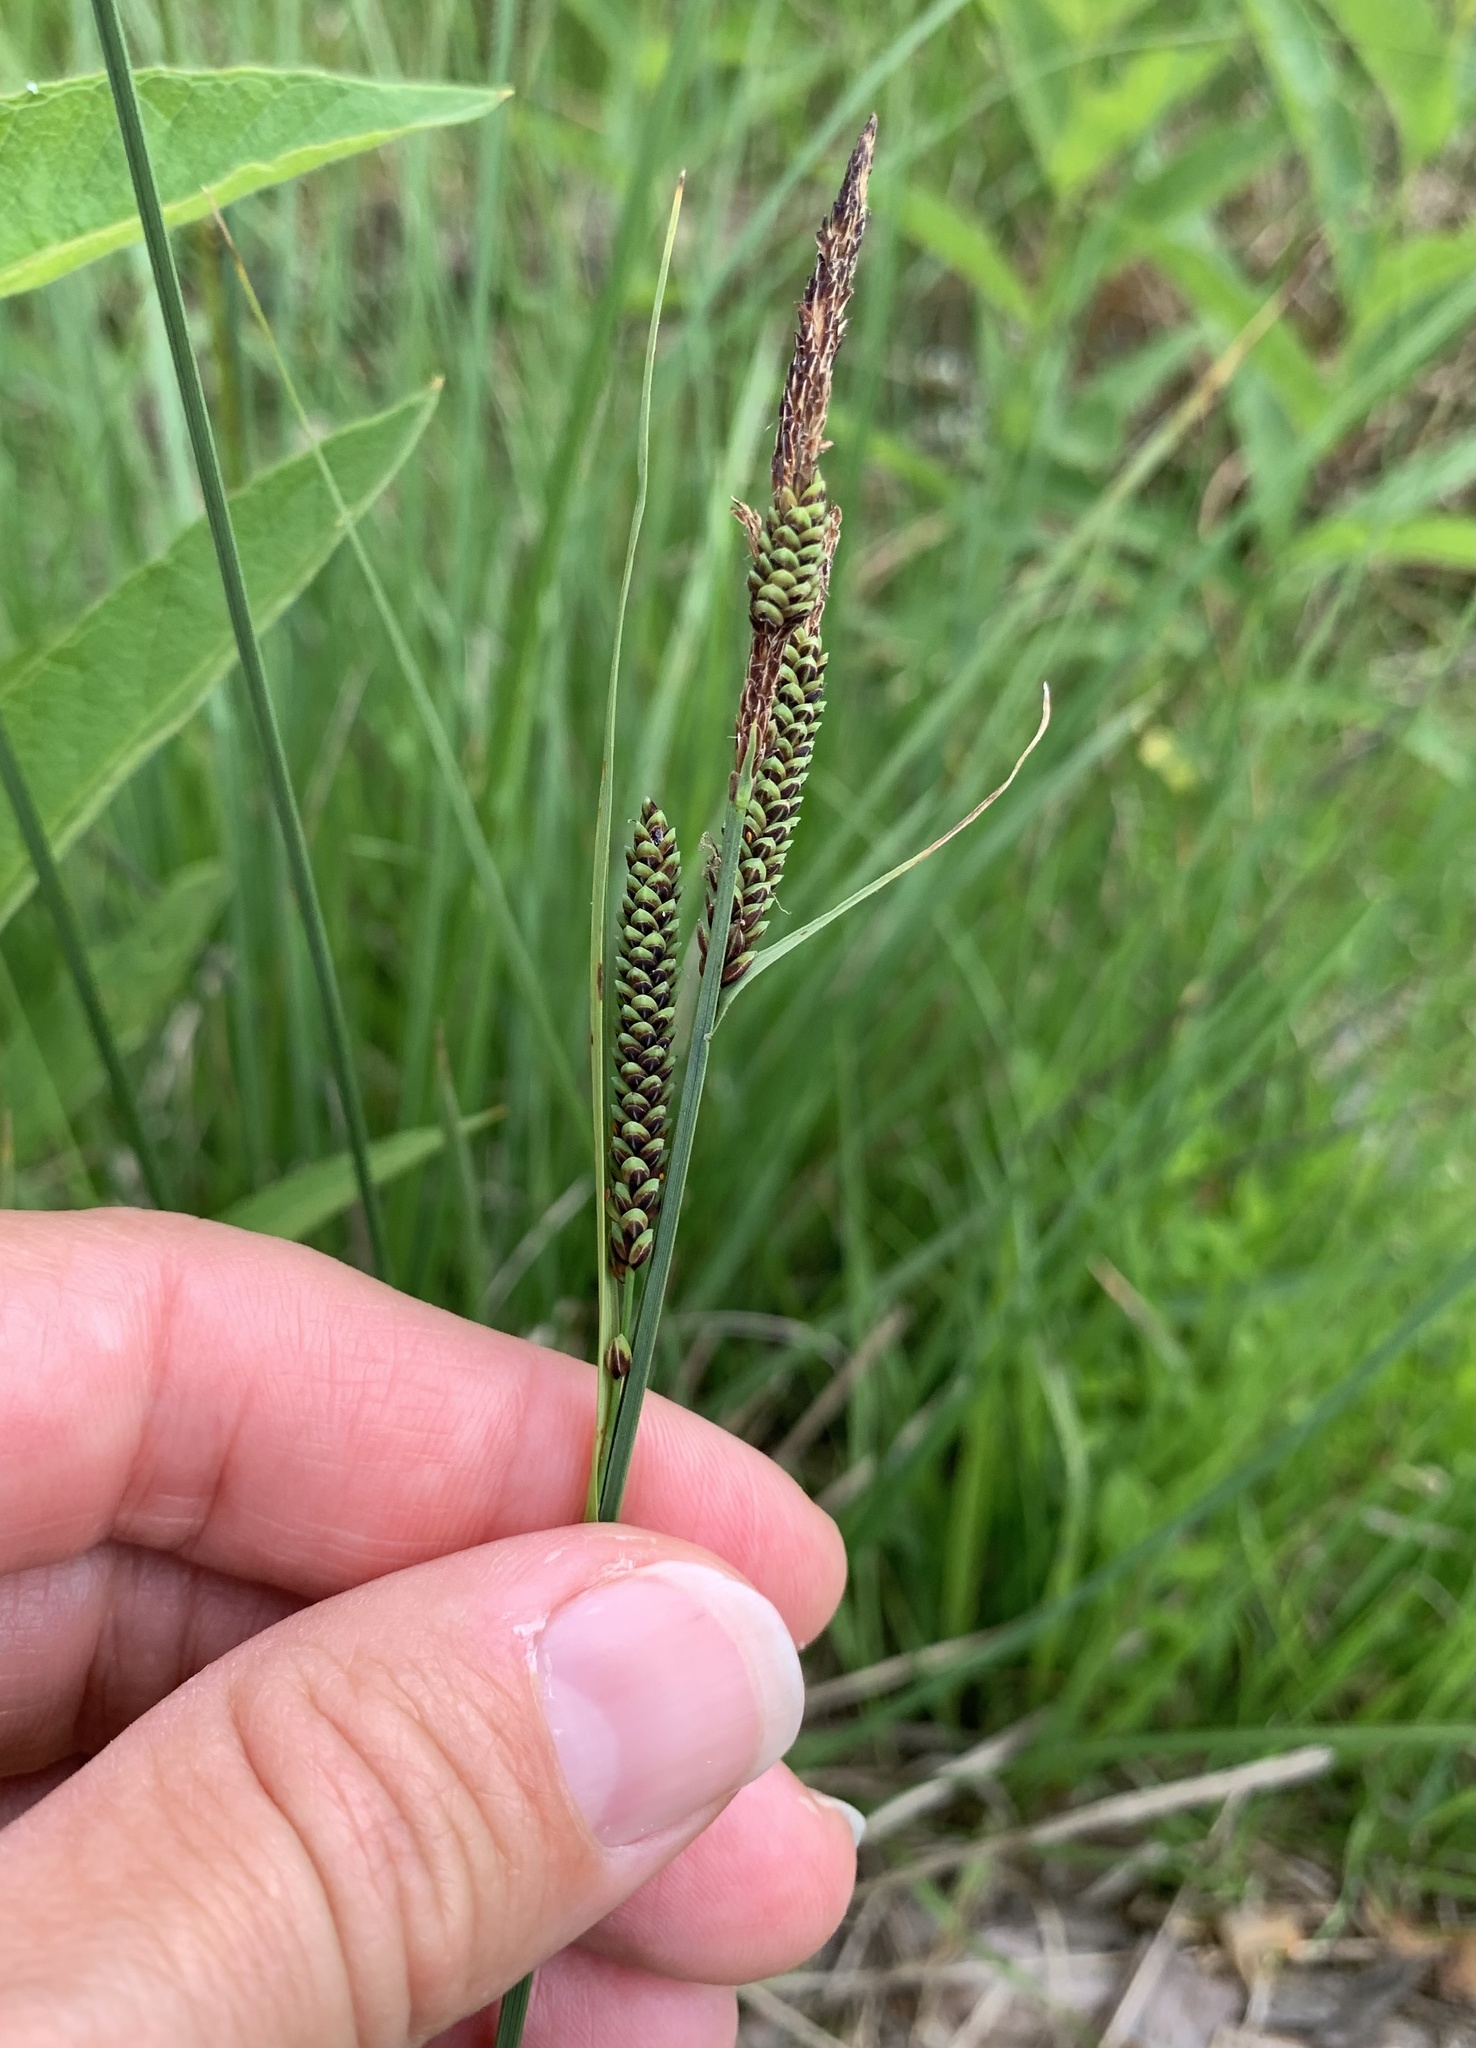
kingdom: Plantae
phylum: Tracheophyta
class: Liliopsida
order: Poales
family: Cyperaceae
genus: Carex
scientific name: Carex nigra
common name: Common sedge
